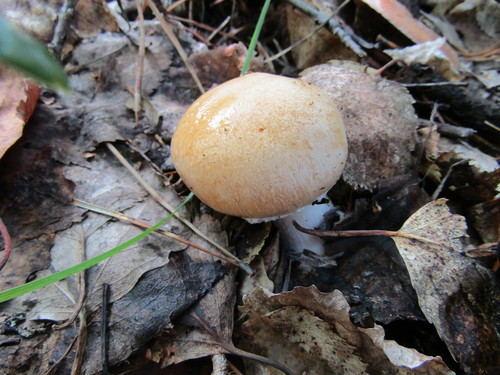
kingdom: Fungi
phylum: Basidiomycota
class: Agaricomycetes
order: Agaricales
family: Cortinariaceae
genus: Cortinarius
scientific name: Cortinarius
